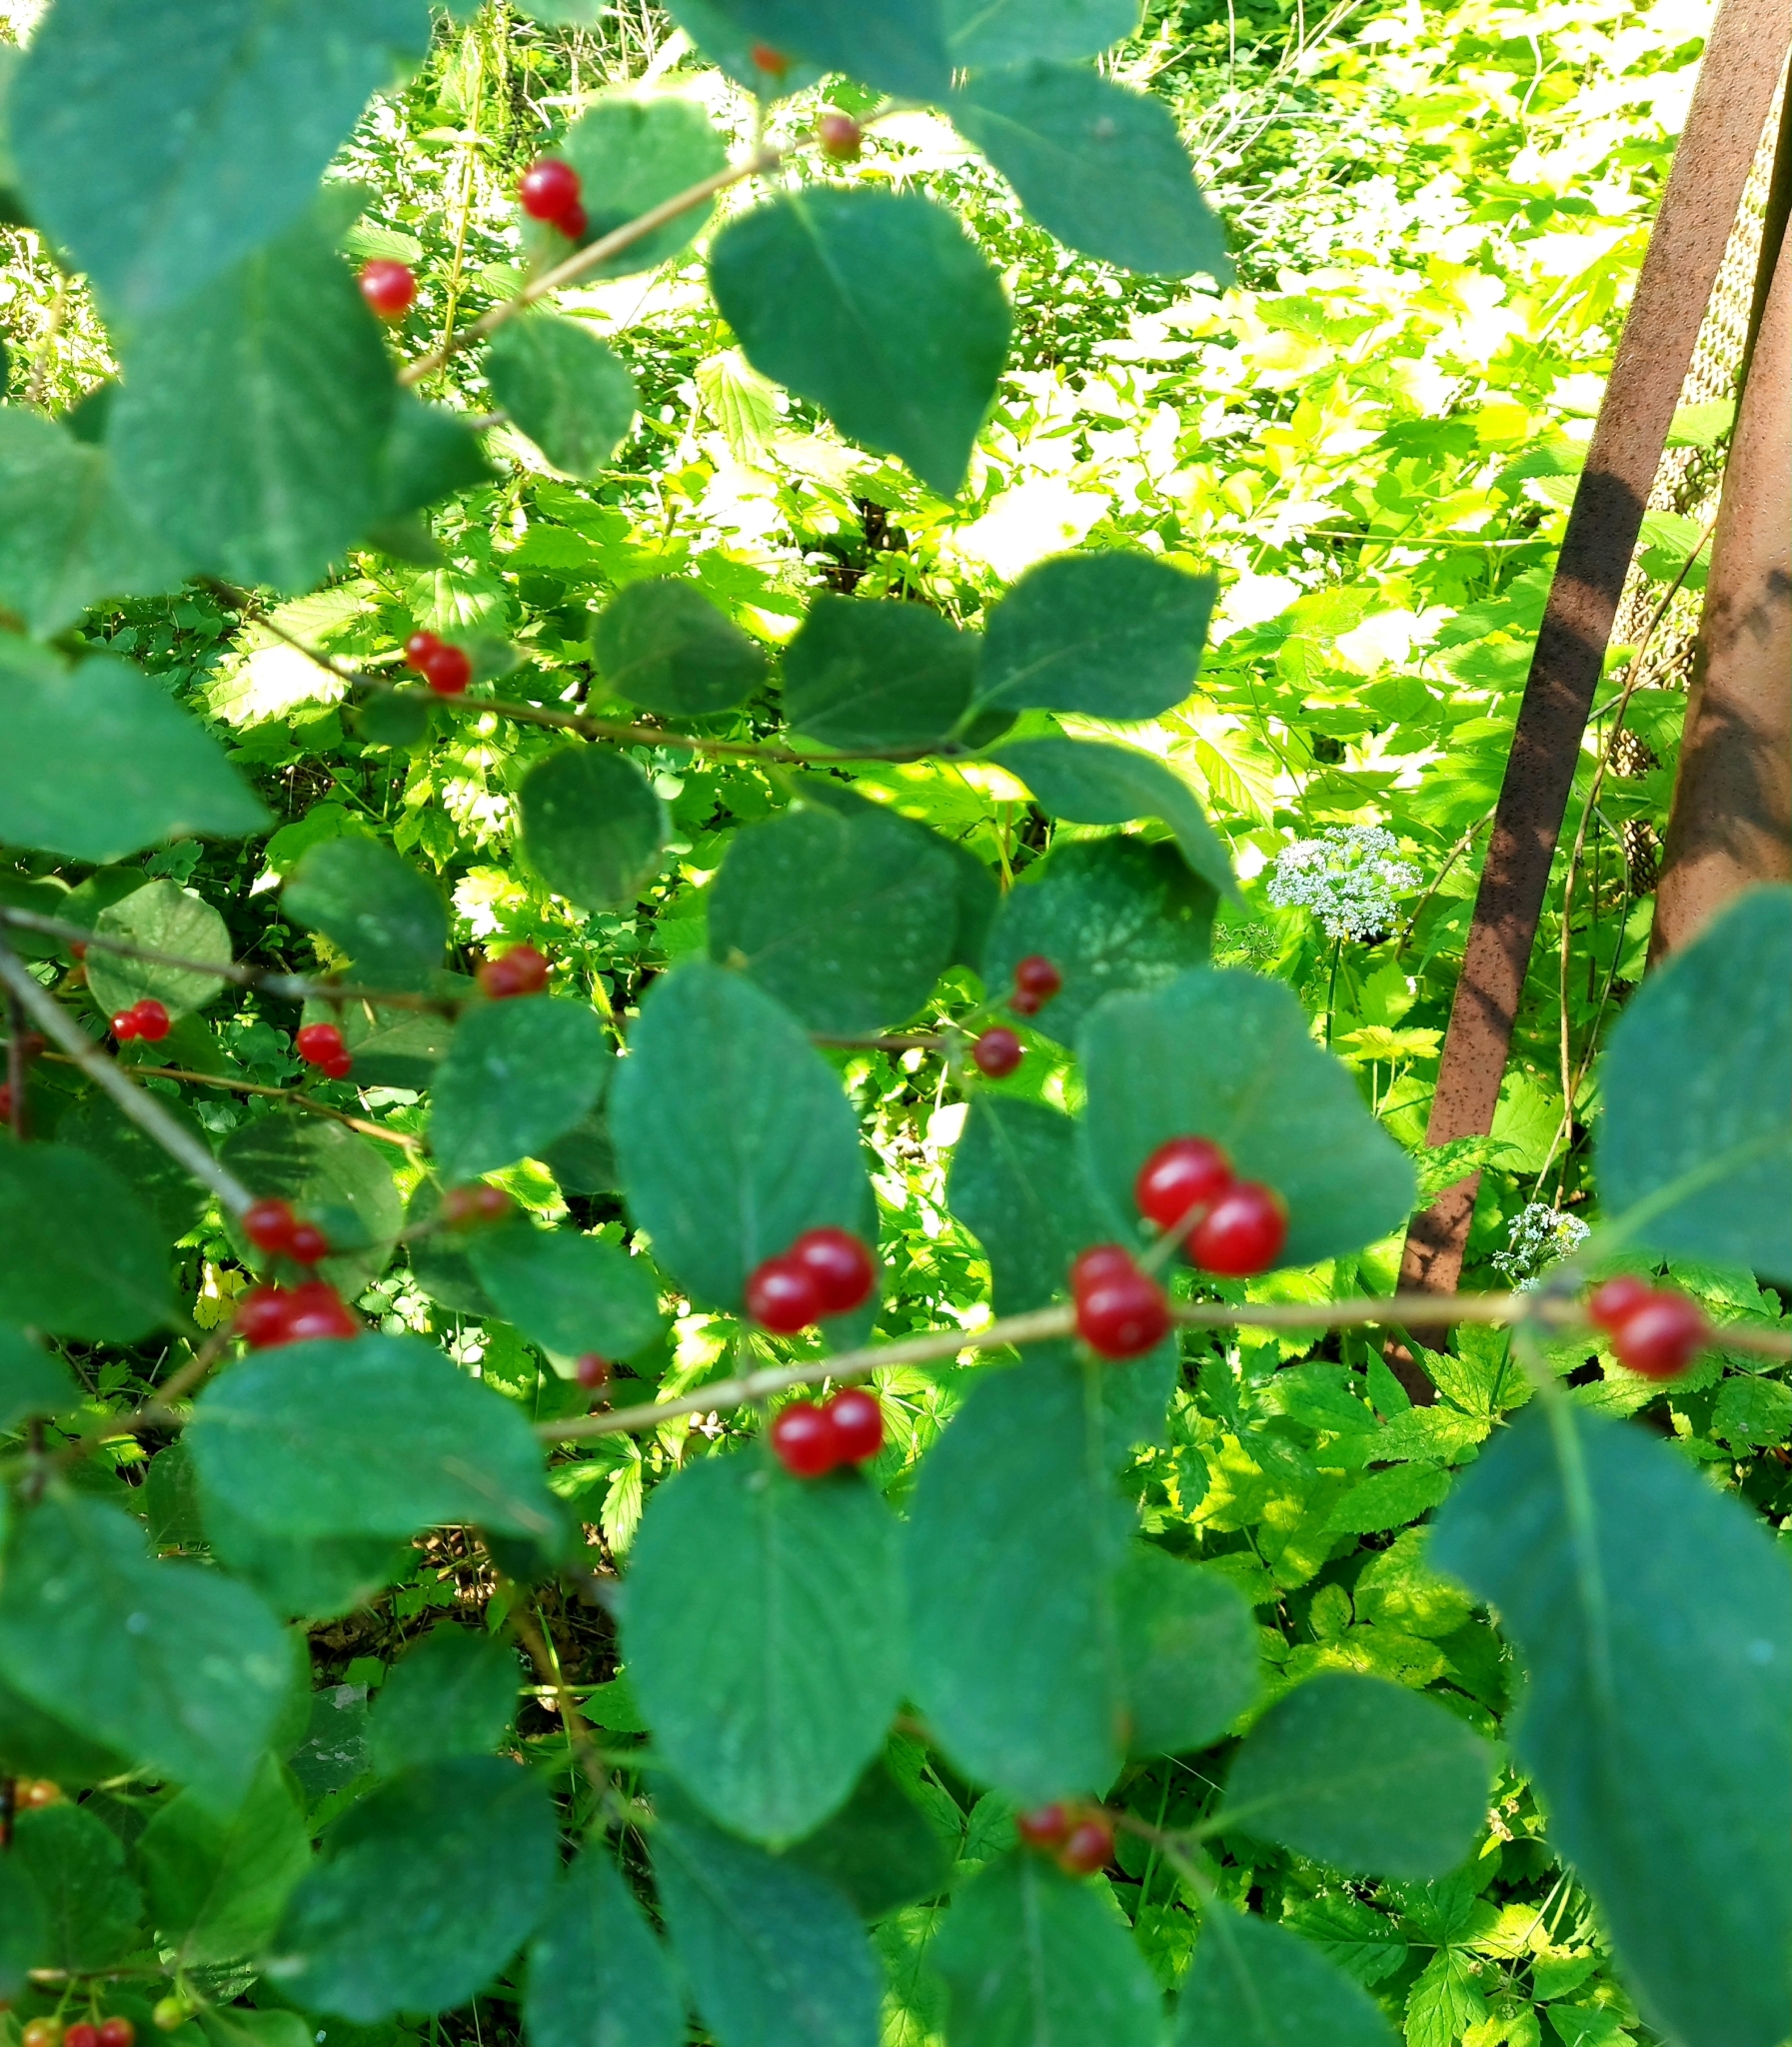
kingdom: Plantae
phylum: Tracheophyta
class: Magnoliopsida
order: Dipsacales
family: Caprifoliaceae
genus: Lonicera
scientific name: Lonicera xylosteum
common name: Fly honeysuckle
